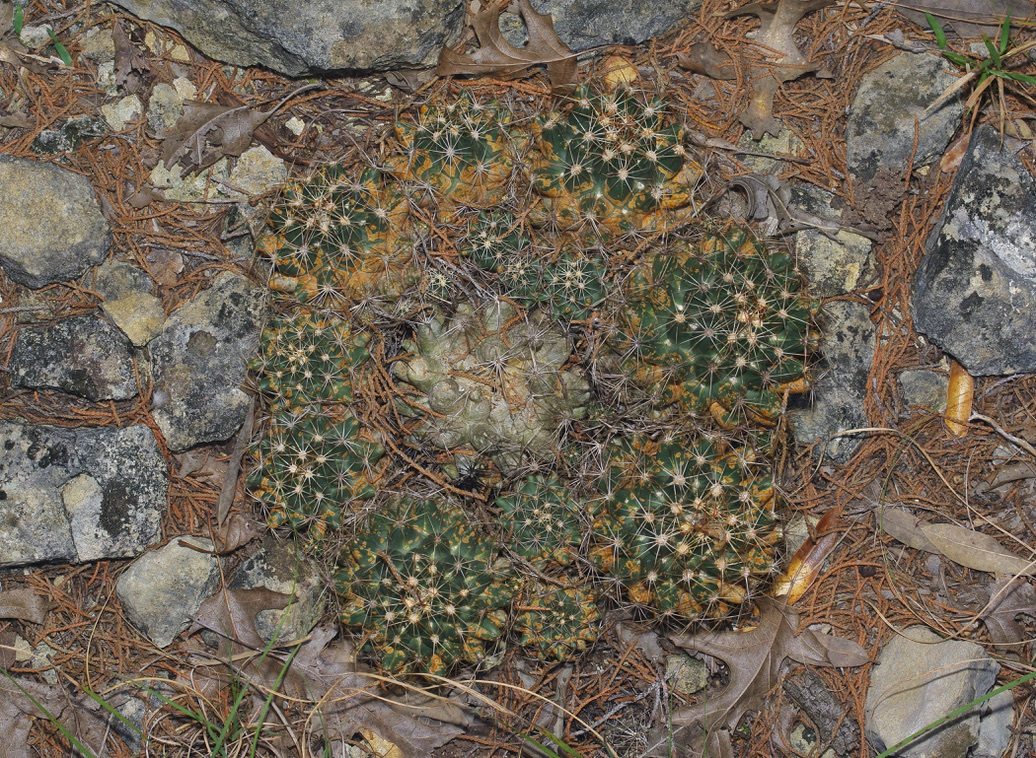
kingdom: Plantae
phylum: Tracheophyta
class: Magnoliopsida
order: Caryophyllales
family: Cactaceae
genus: Coryphantha
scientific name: Coryphantha sulcata
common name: Finger cactus
